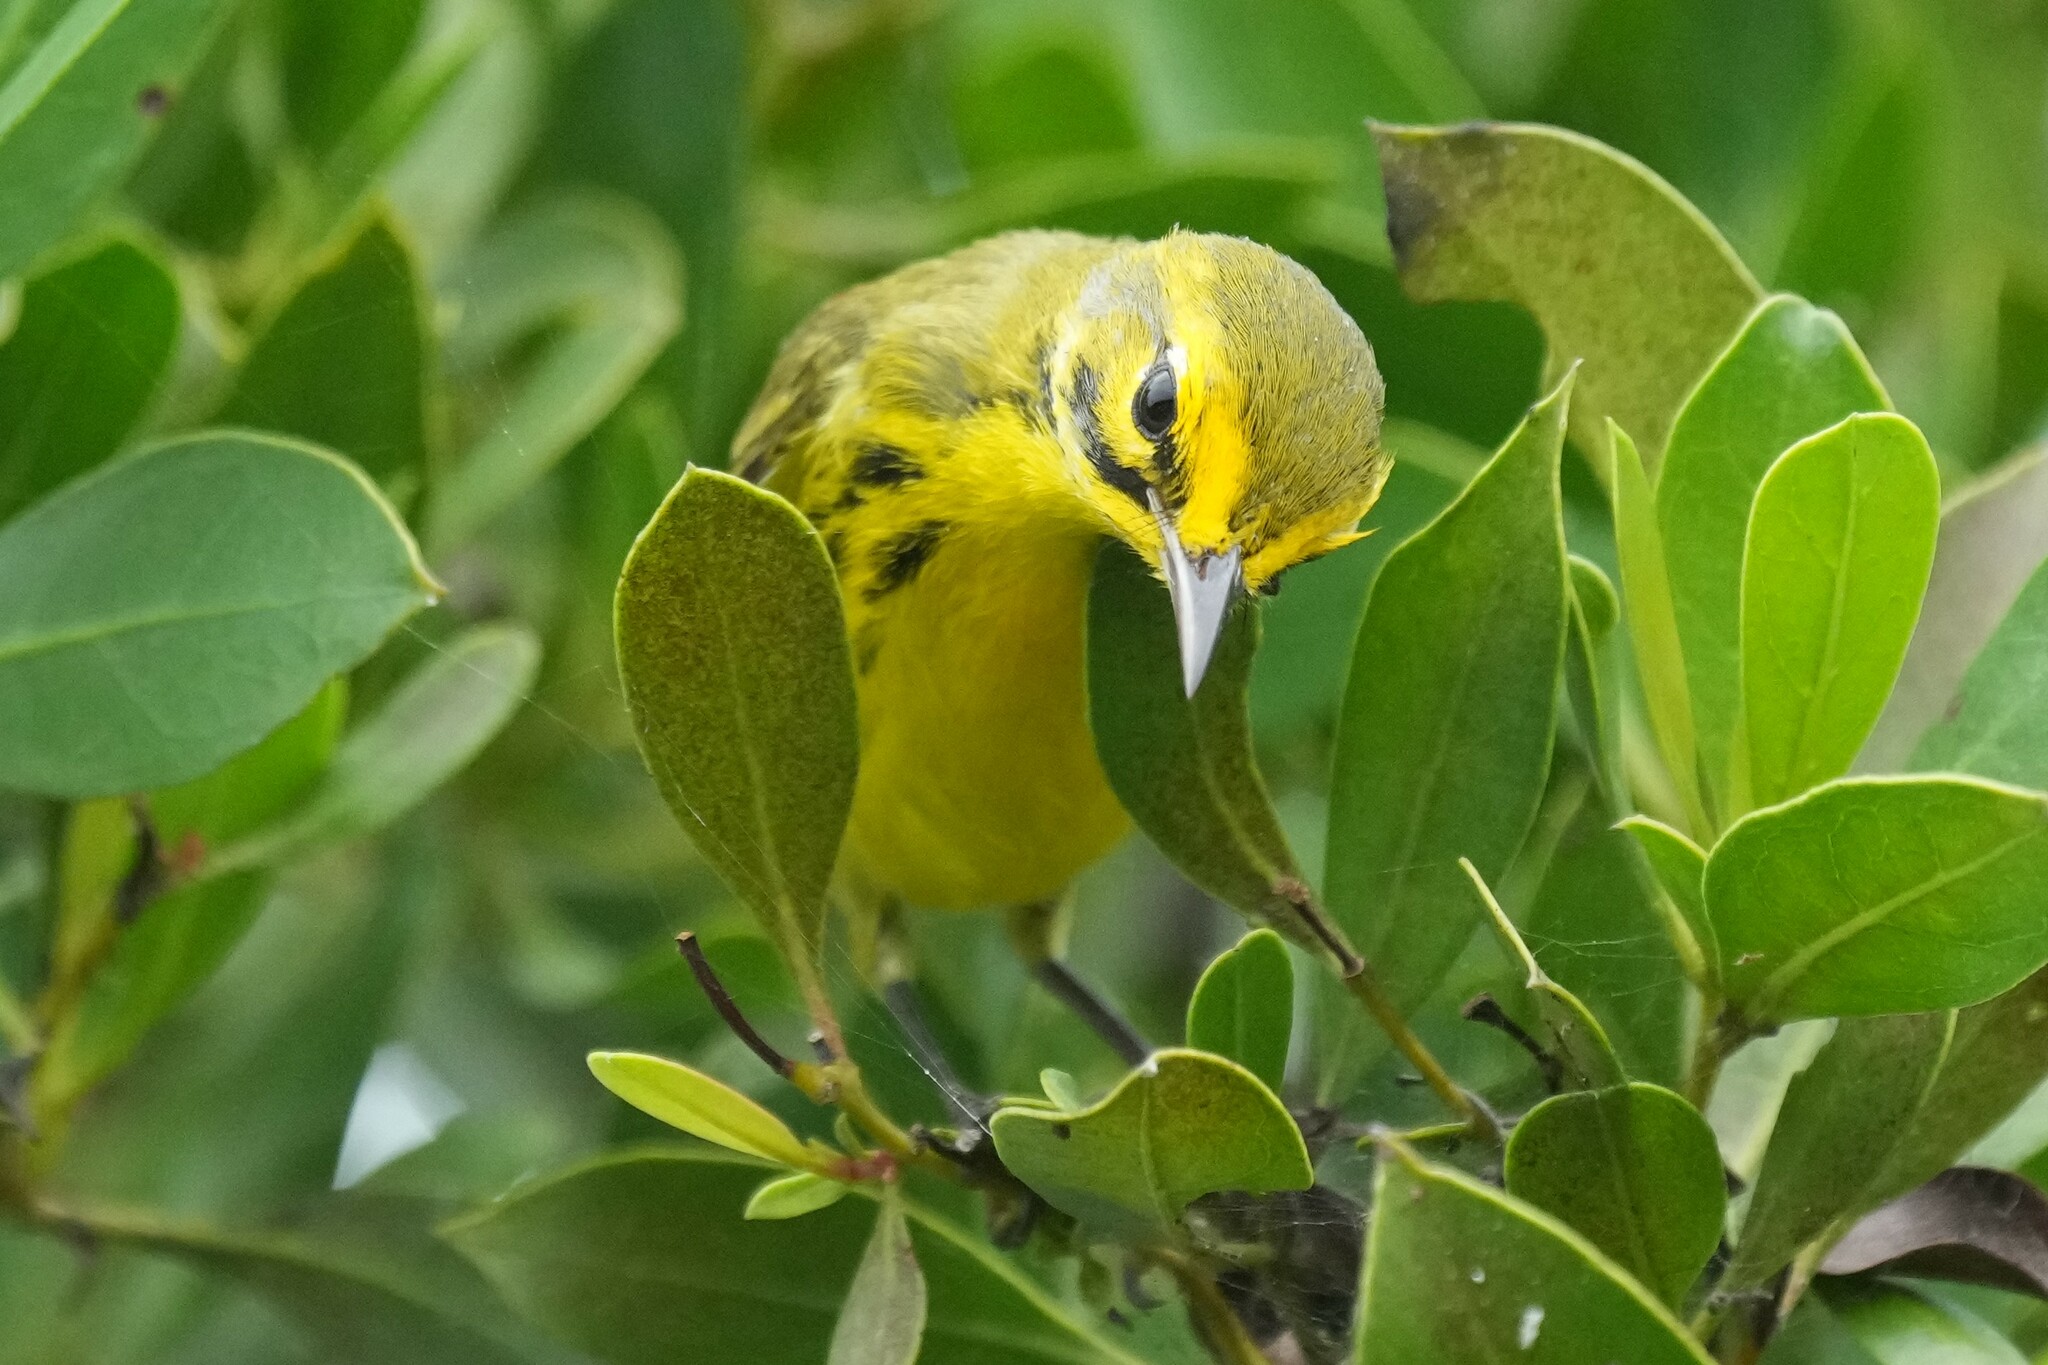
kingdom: Animalia
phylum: Chordata
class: Aves
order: Passeriformes
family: Parulidae
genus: Setophaga
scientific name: Setophaga discolor
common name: Prairie warbler
